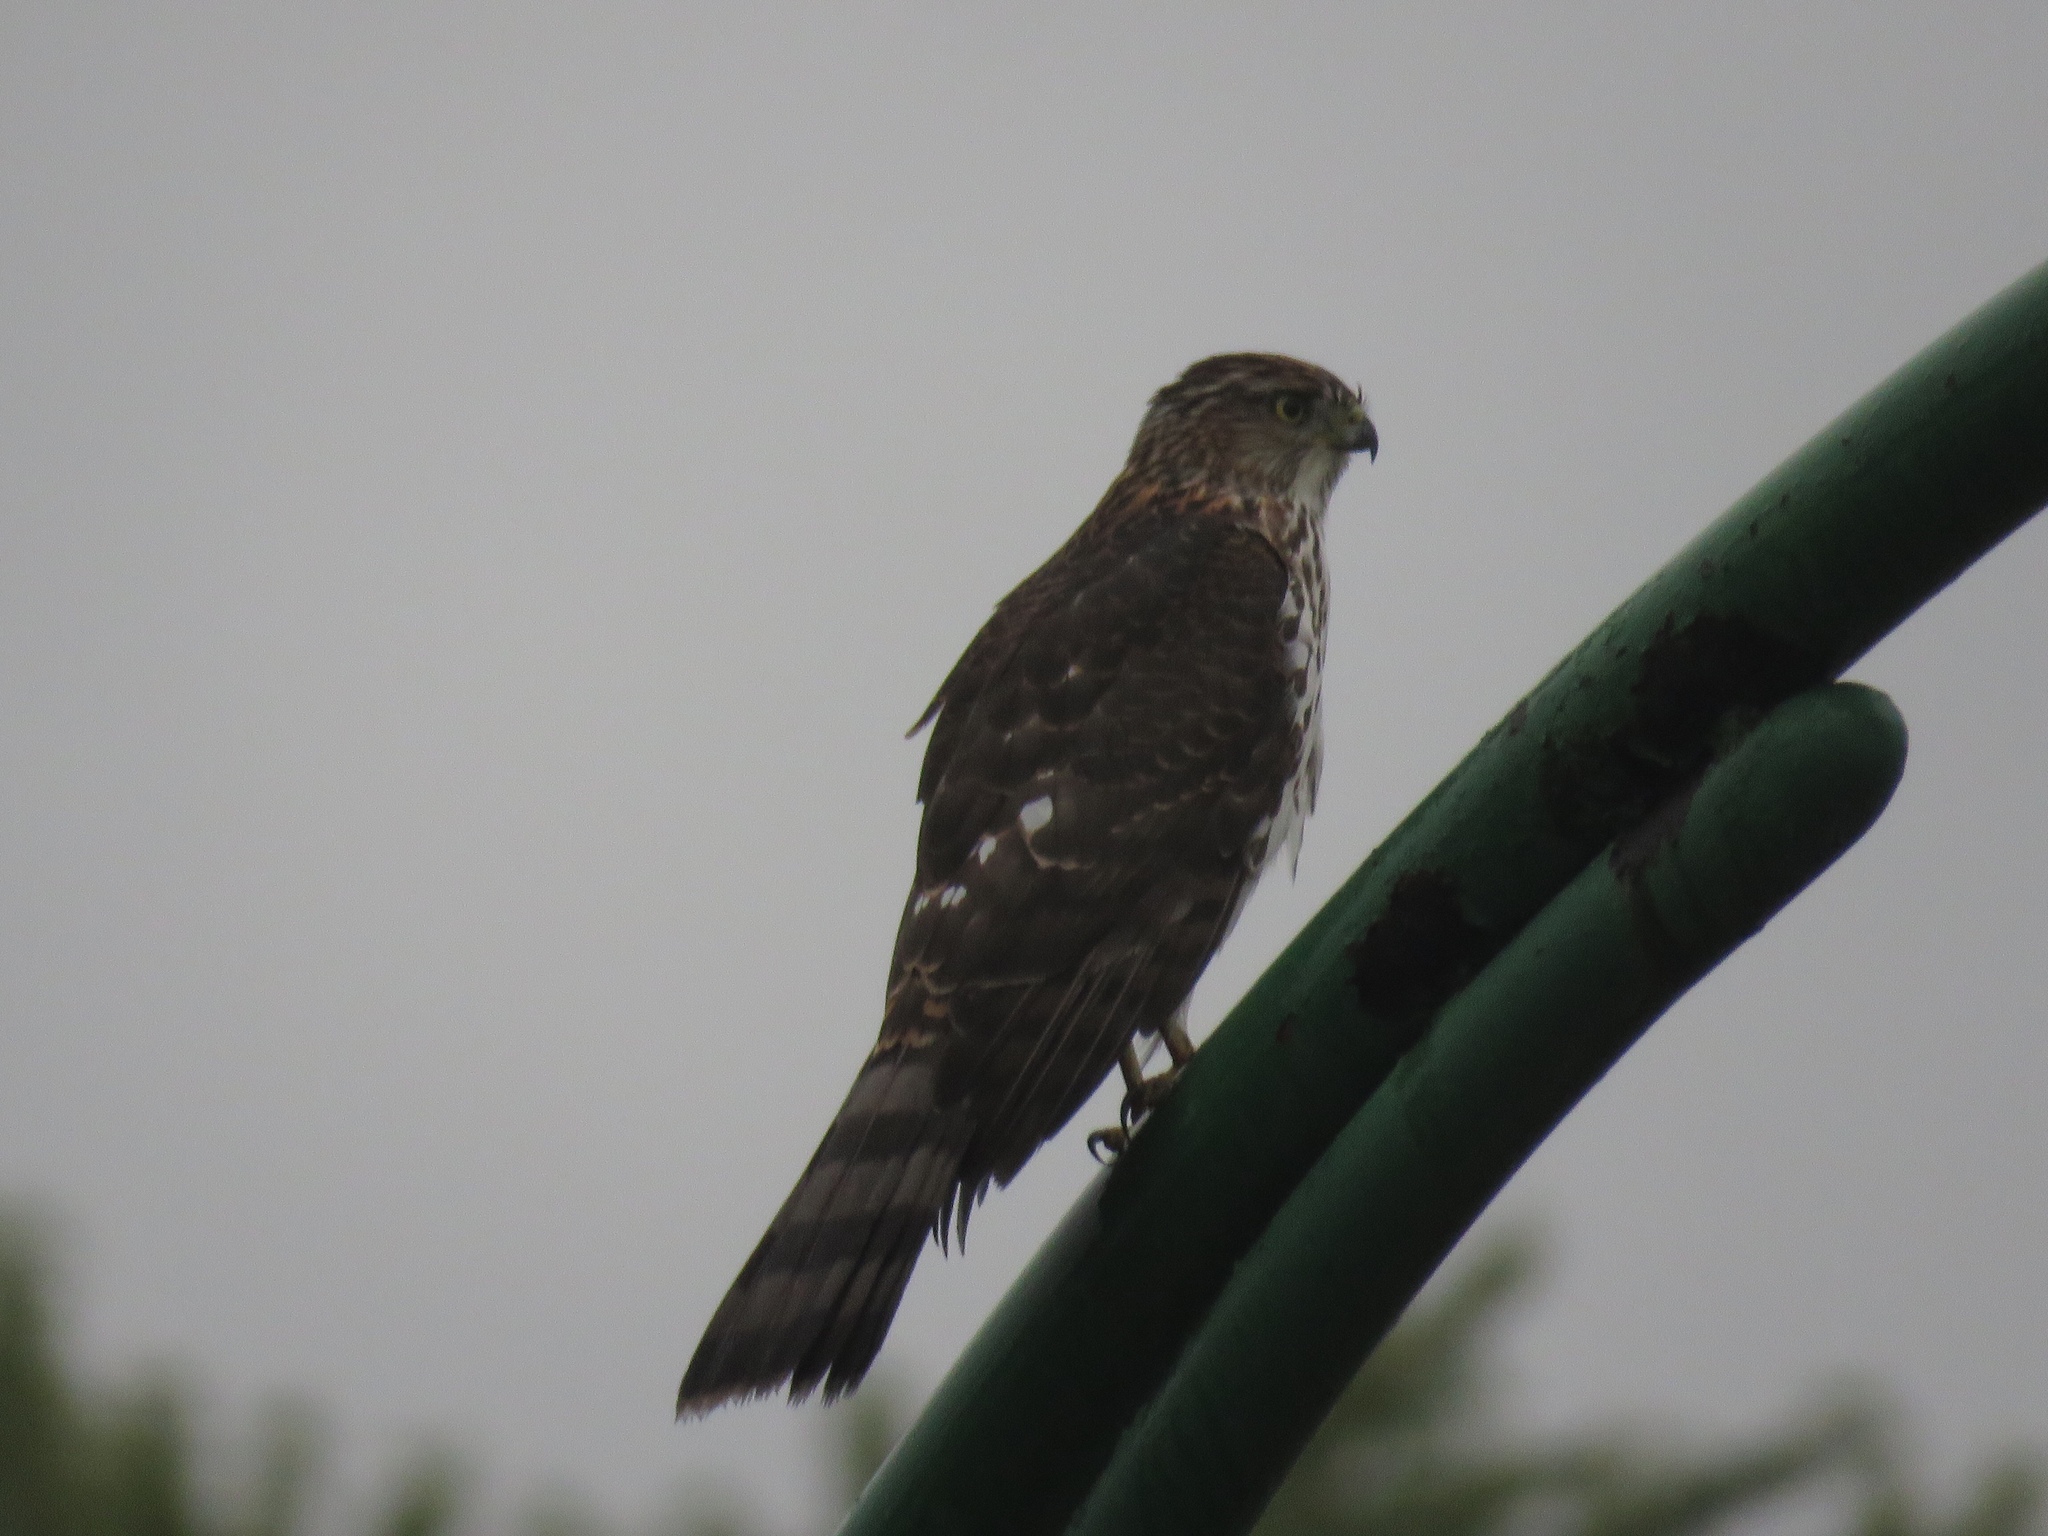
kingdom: Animalia
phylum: Chordata
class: Aves
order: Accipitriformes
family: Accipitridae
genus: Accipiter
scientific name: Accipiter cooperii
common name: Cooper's hawk
